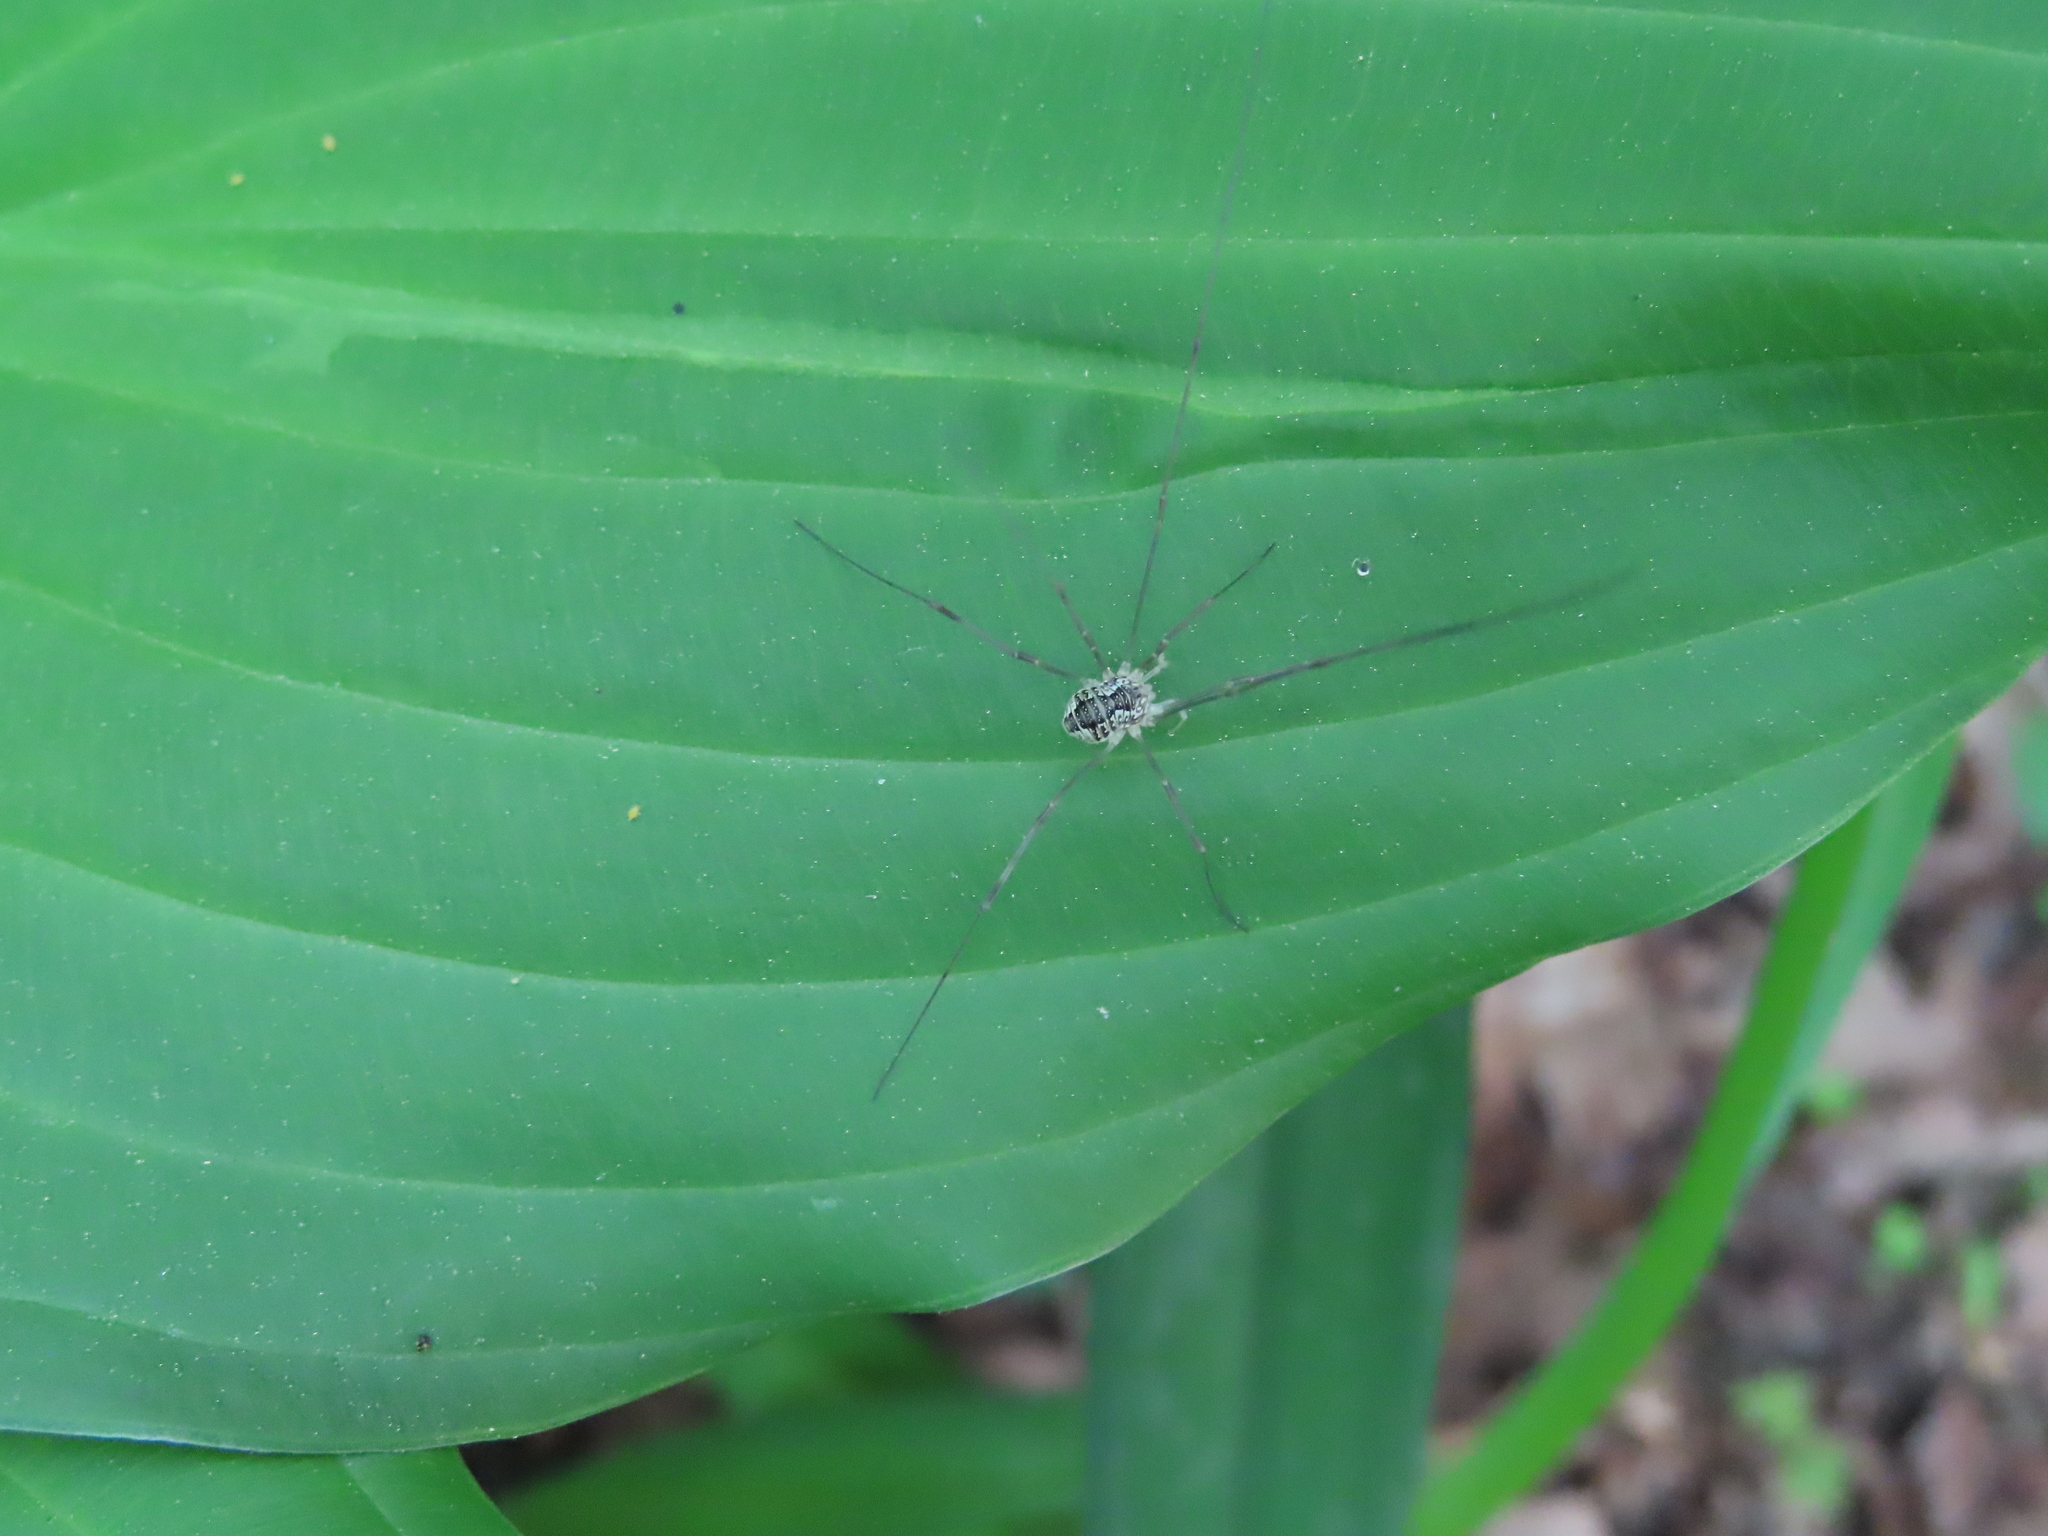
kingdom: Animalia
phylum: Arthropoda
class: Arachnida
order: Opiliones
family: Sclerosomatidae
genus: Leiobunum
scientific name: Leiobunum vittatum
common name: Eastern harvestman
